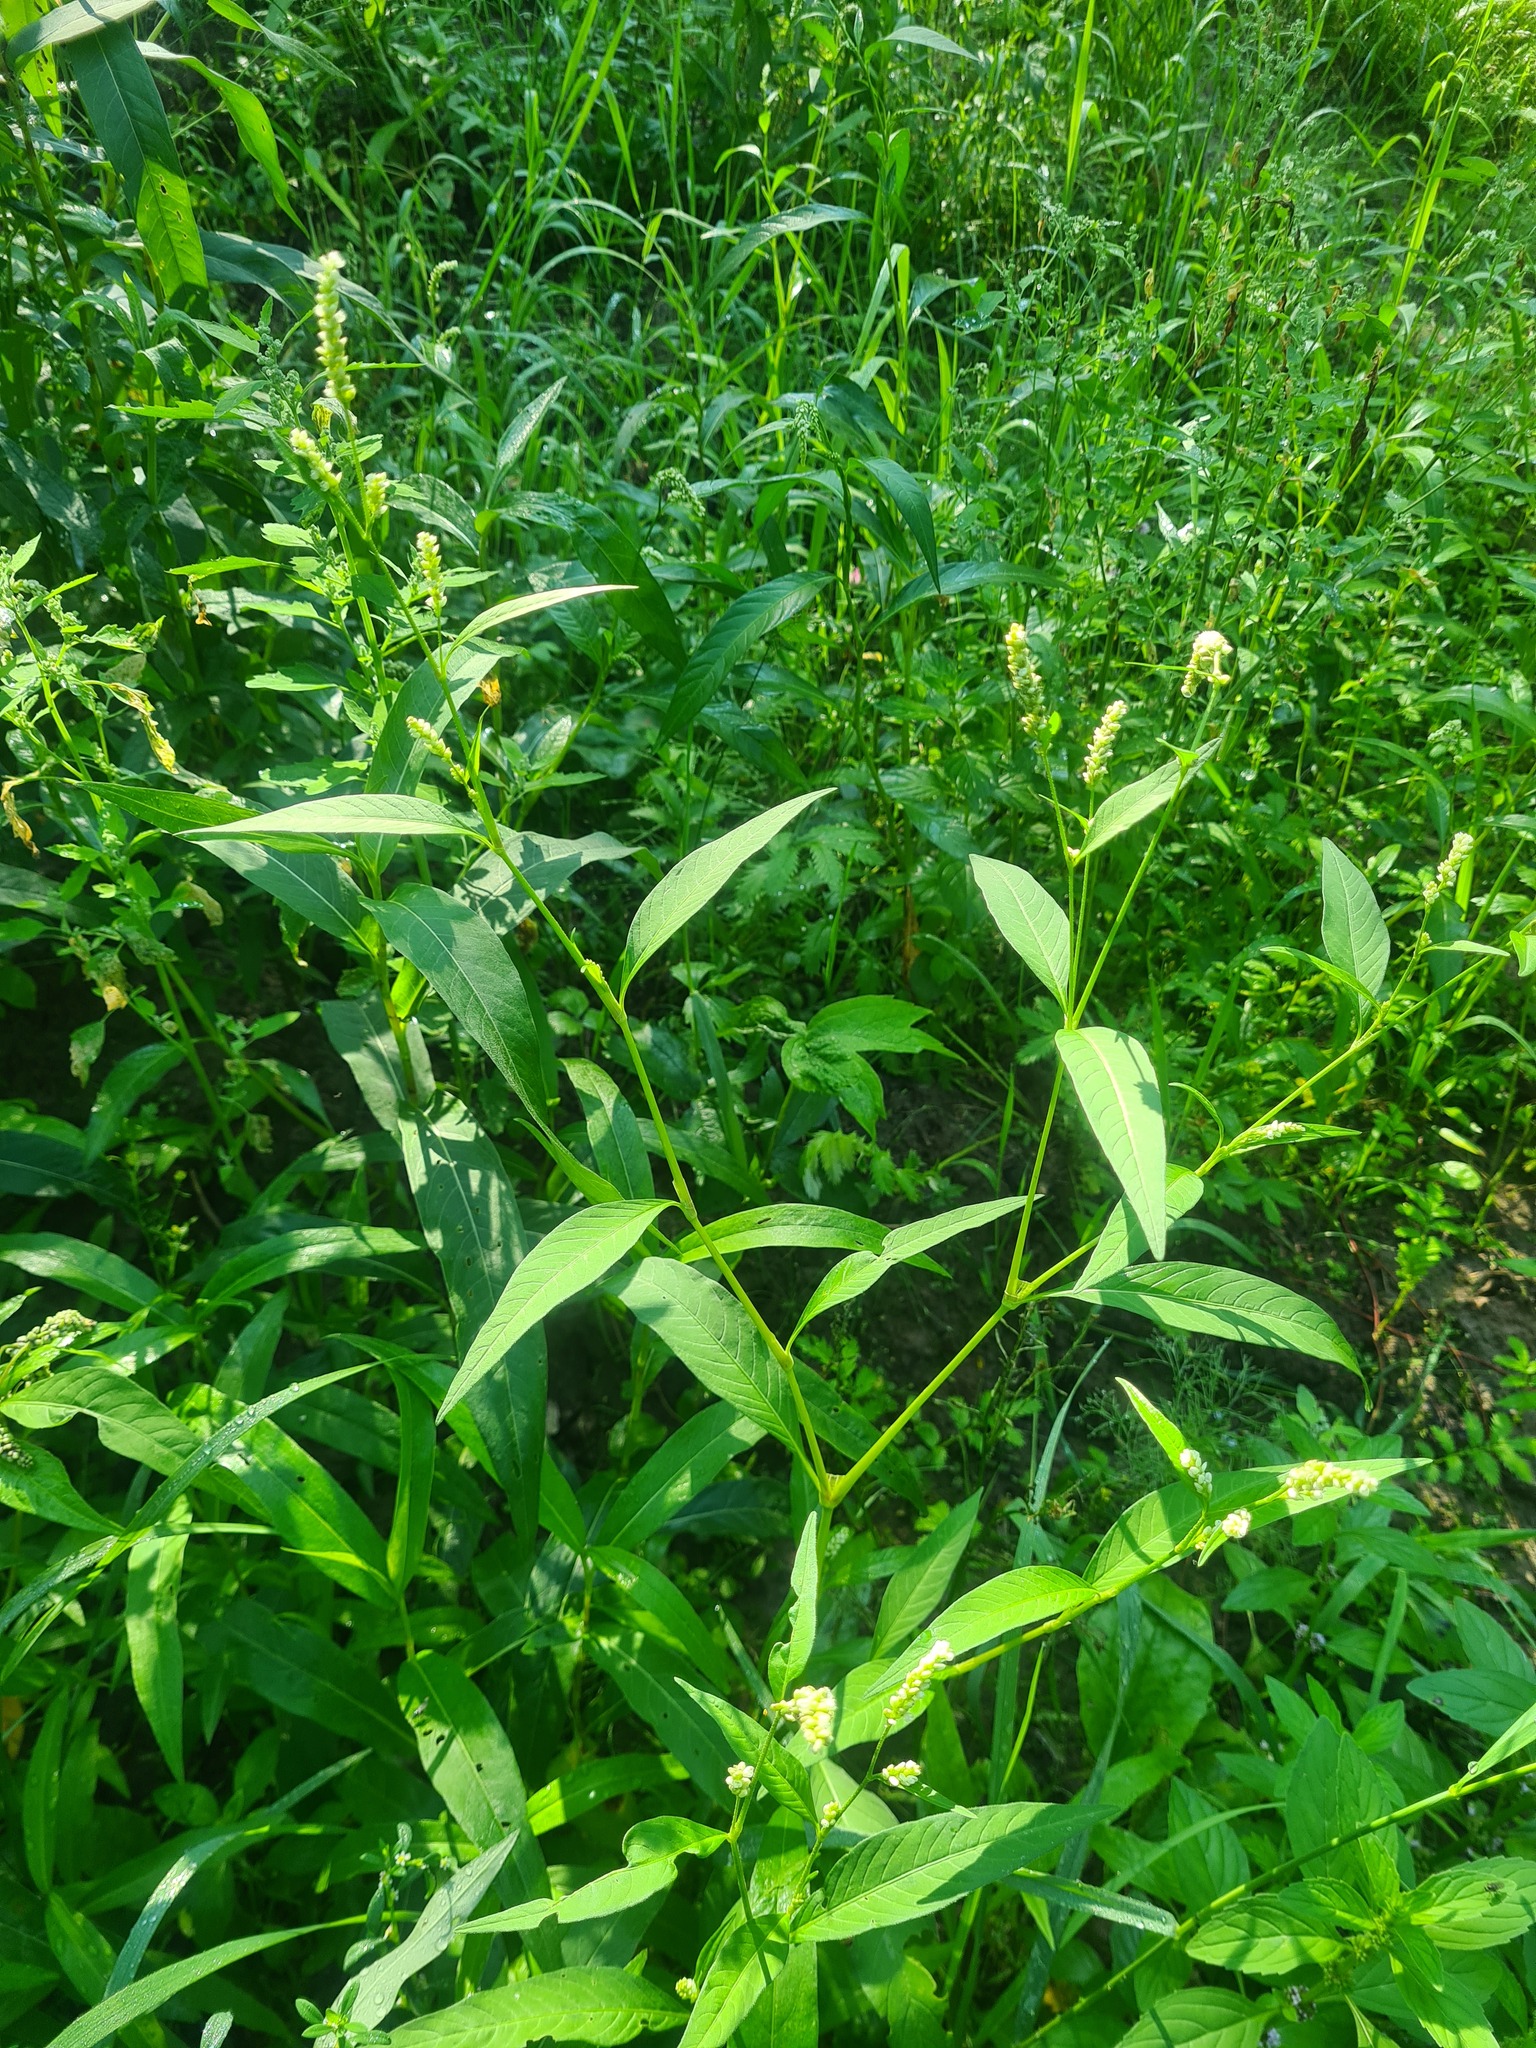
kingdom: Plantae
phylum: Tracheophyta
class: Magnoliopsida
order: Caryophyllales
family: Polygonaceae
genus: Persicaria
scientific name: Persicaria lapathifolia
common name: Curlytop knotweed
